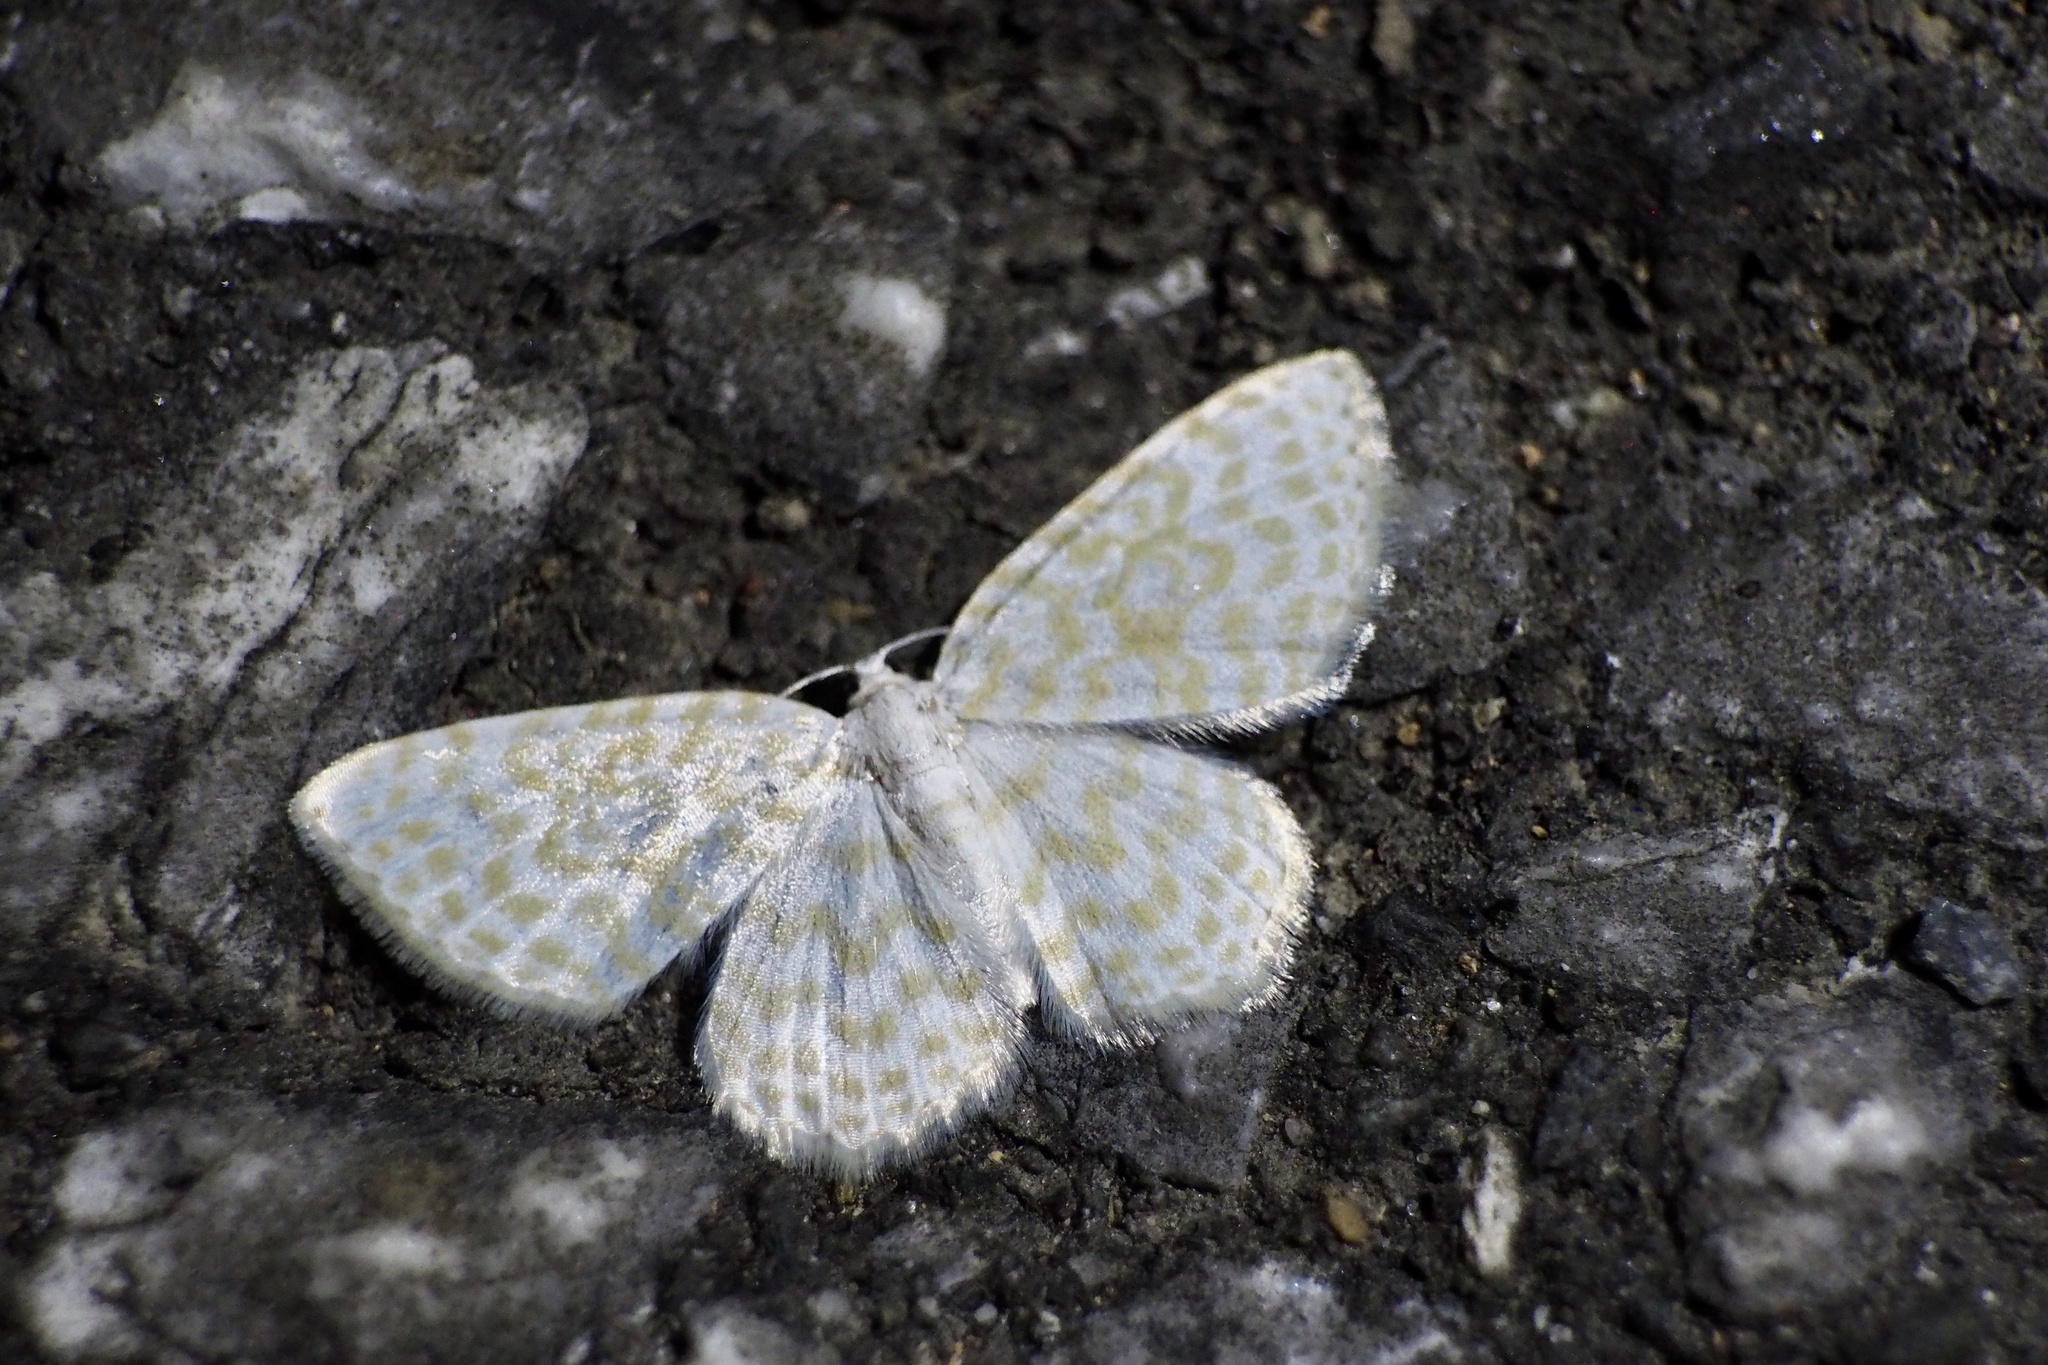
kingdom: Animalia
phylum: Arthropoda
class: Insecta
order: Lepidoptera
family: Geometridae
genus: Asthena
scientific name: Asthena nymphaeata
